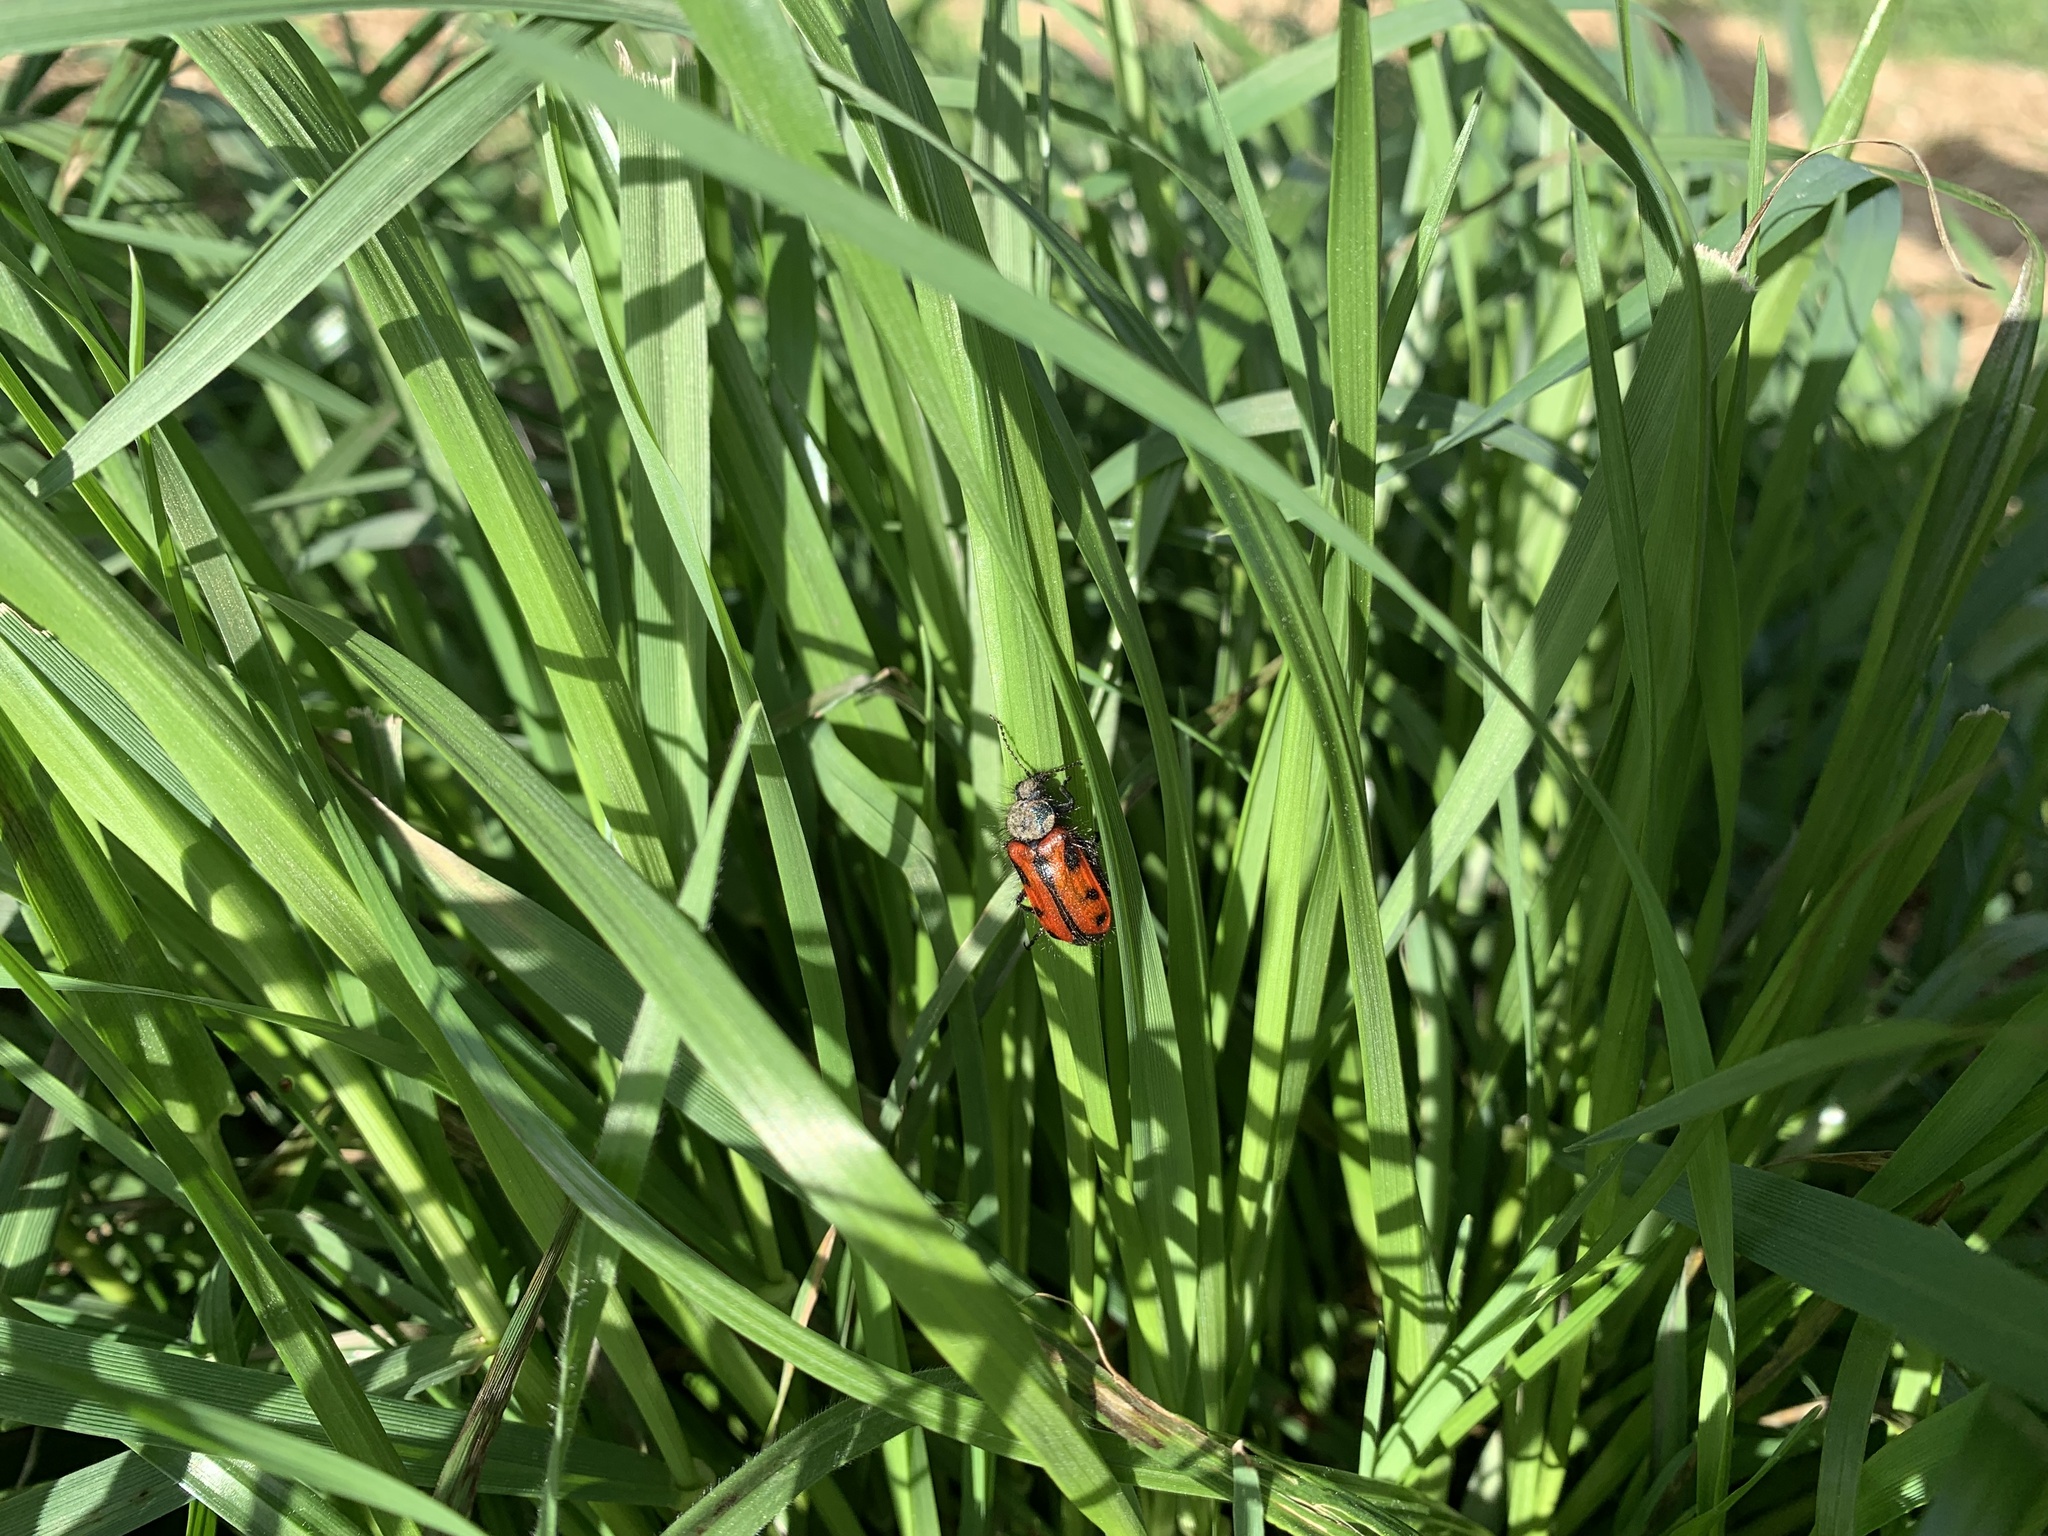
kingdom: Animalia
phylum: Arthropoda
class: Insecta
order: Coleoptera
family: Melyridae
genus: Astylus
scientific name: Astylus
